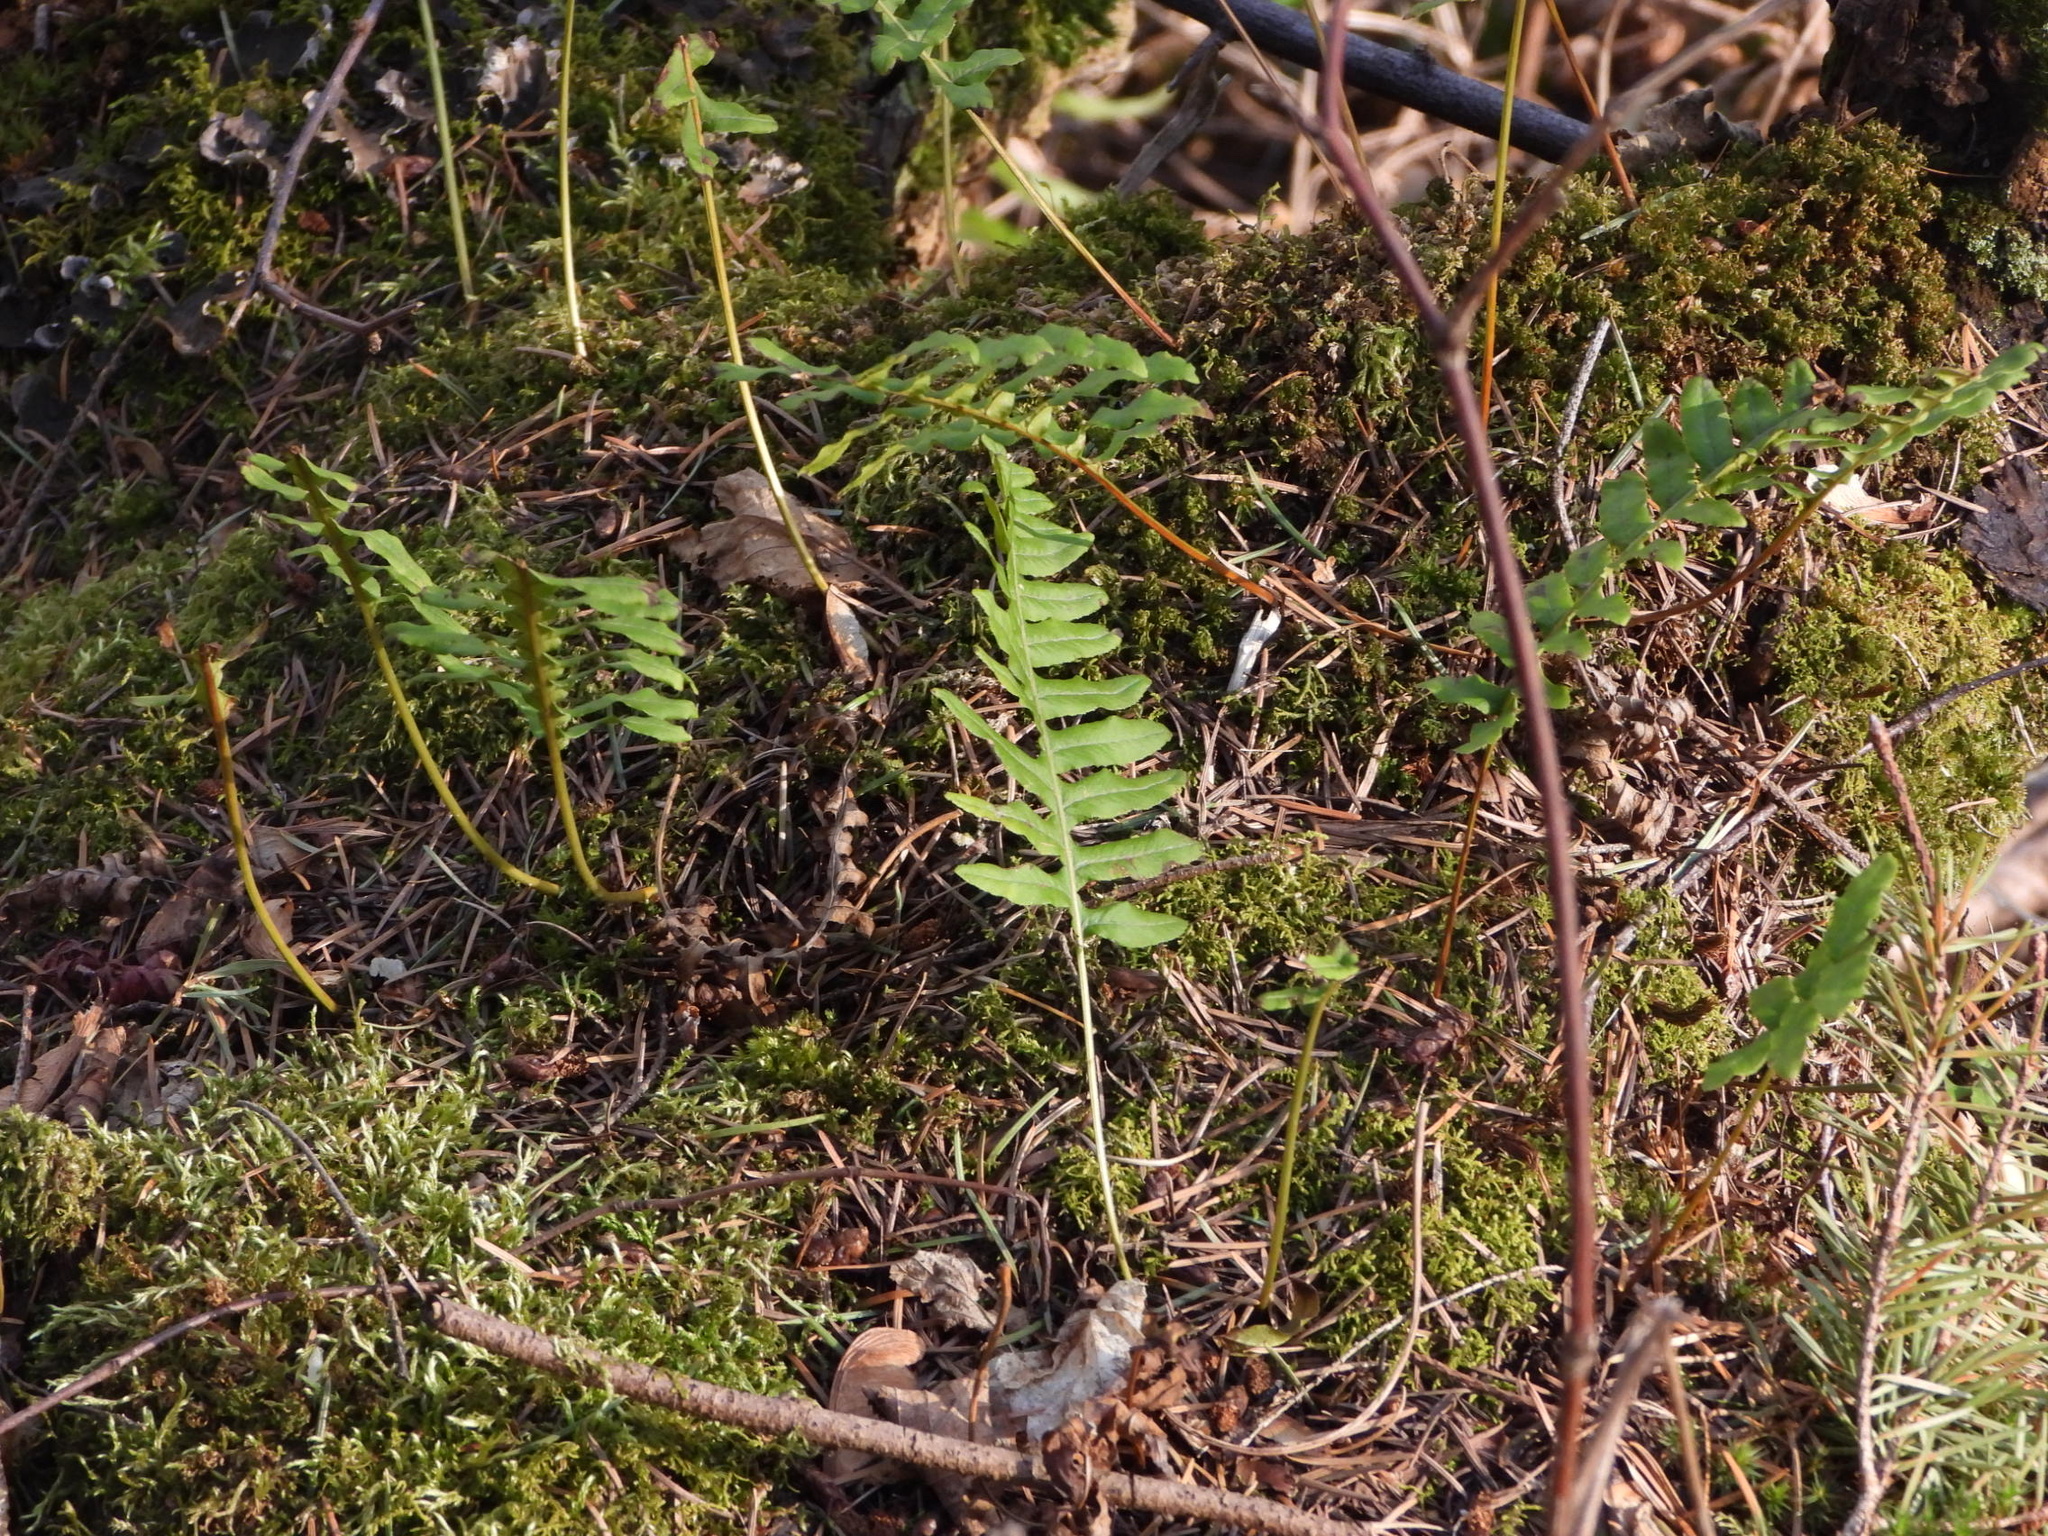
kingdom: Plantae
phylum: Tracheophyta
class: Polypodiopsida
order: Polypodiales
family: Polypodiaceae
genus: Polypodium
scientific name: Polypodium glycyrrhiza
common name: Licorice fern
